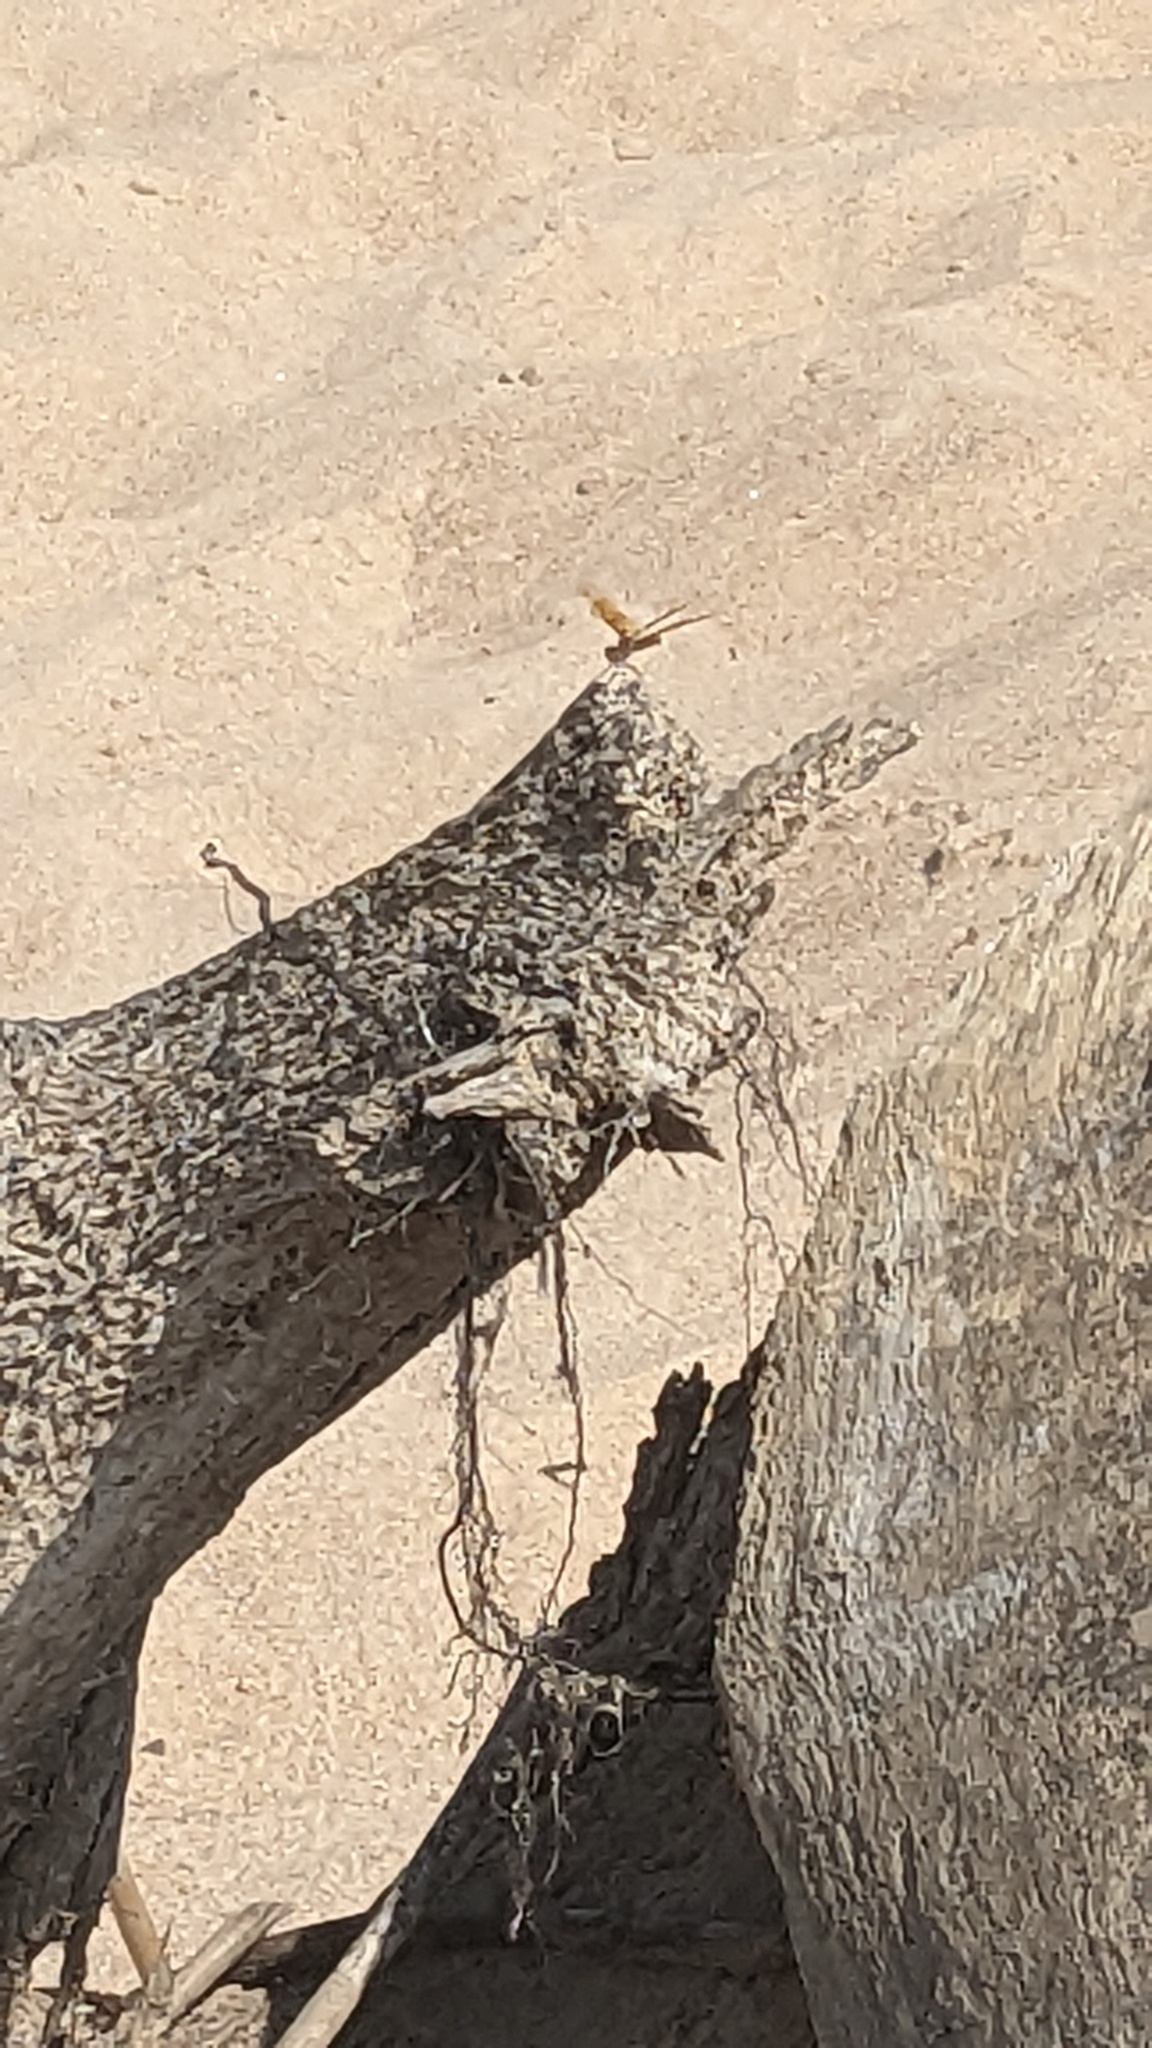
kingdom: Animalia
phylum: Arthropoda
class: Insecta
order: Odonata
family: Libellulidae
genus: Perithemis
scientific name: Perithemis tenera
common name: Eastern amberwing
